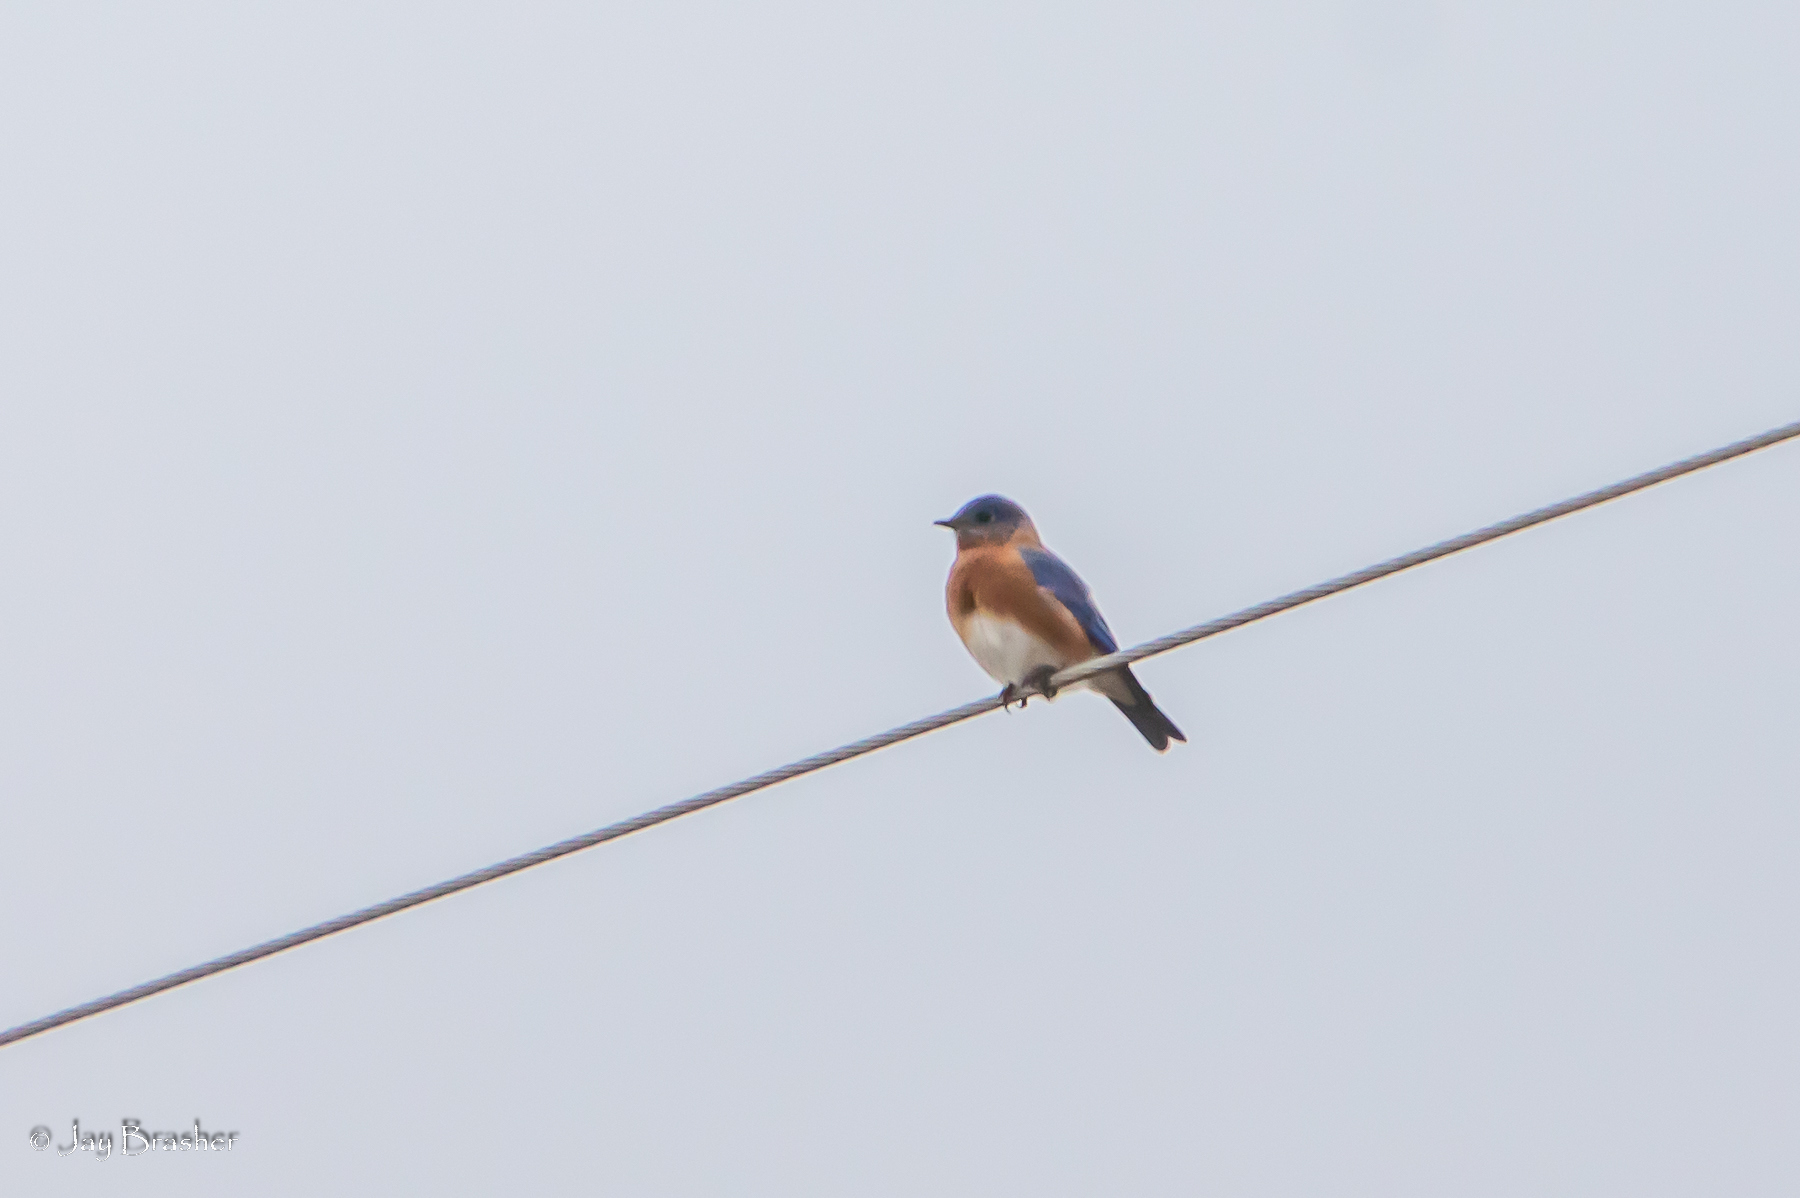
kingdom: Animalia
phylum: Chordata
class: Aves
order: Passeriformes
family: Turdidae
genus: Sialia
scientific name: Sialia sialis
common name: Eastern bluebird
